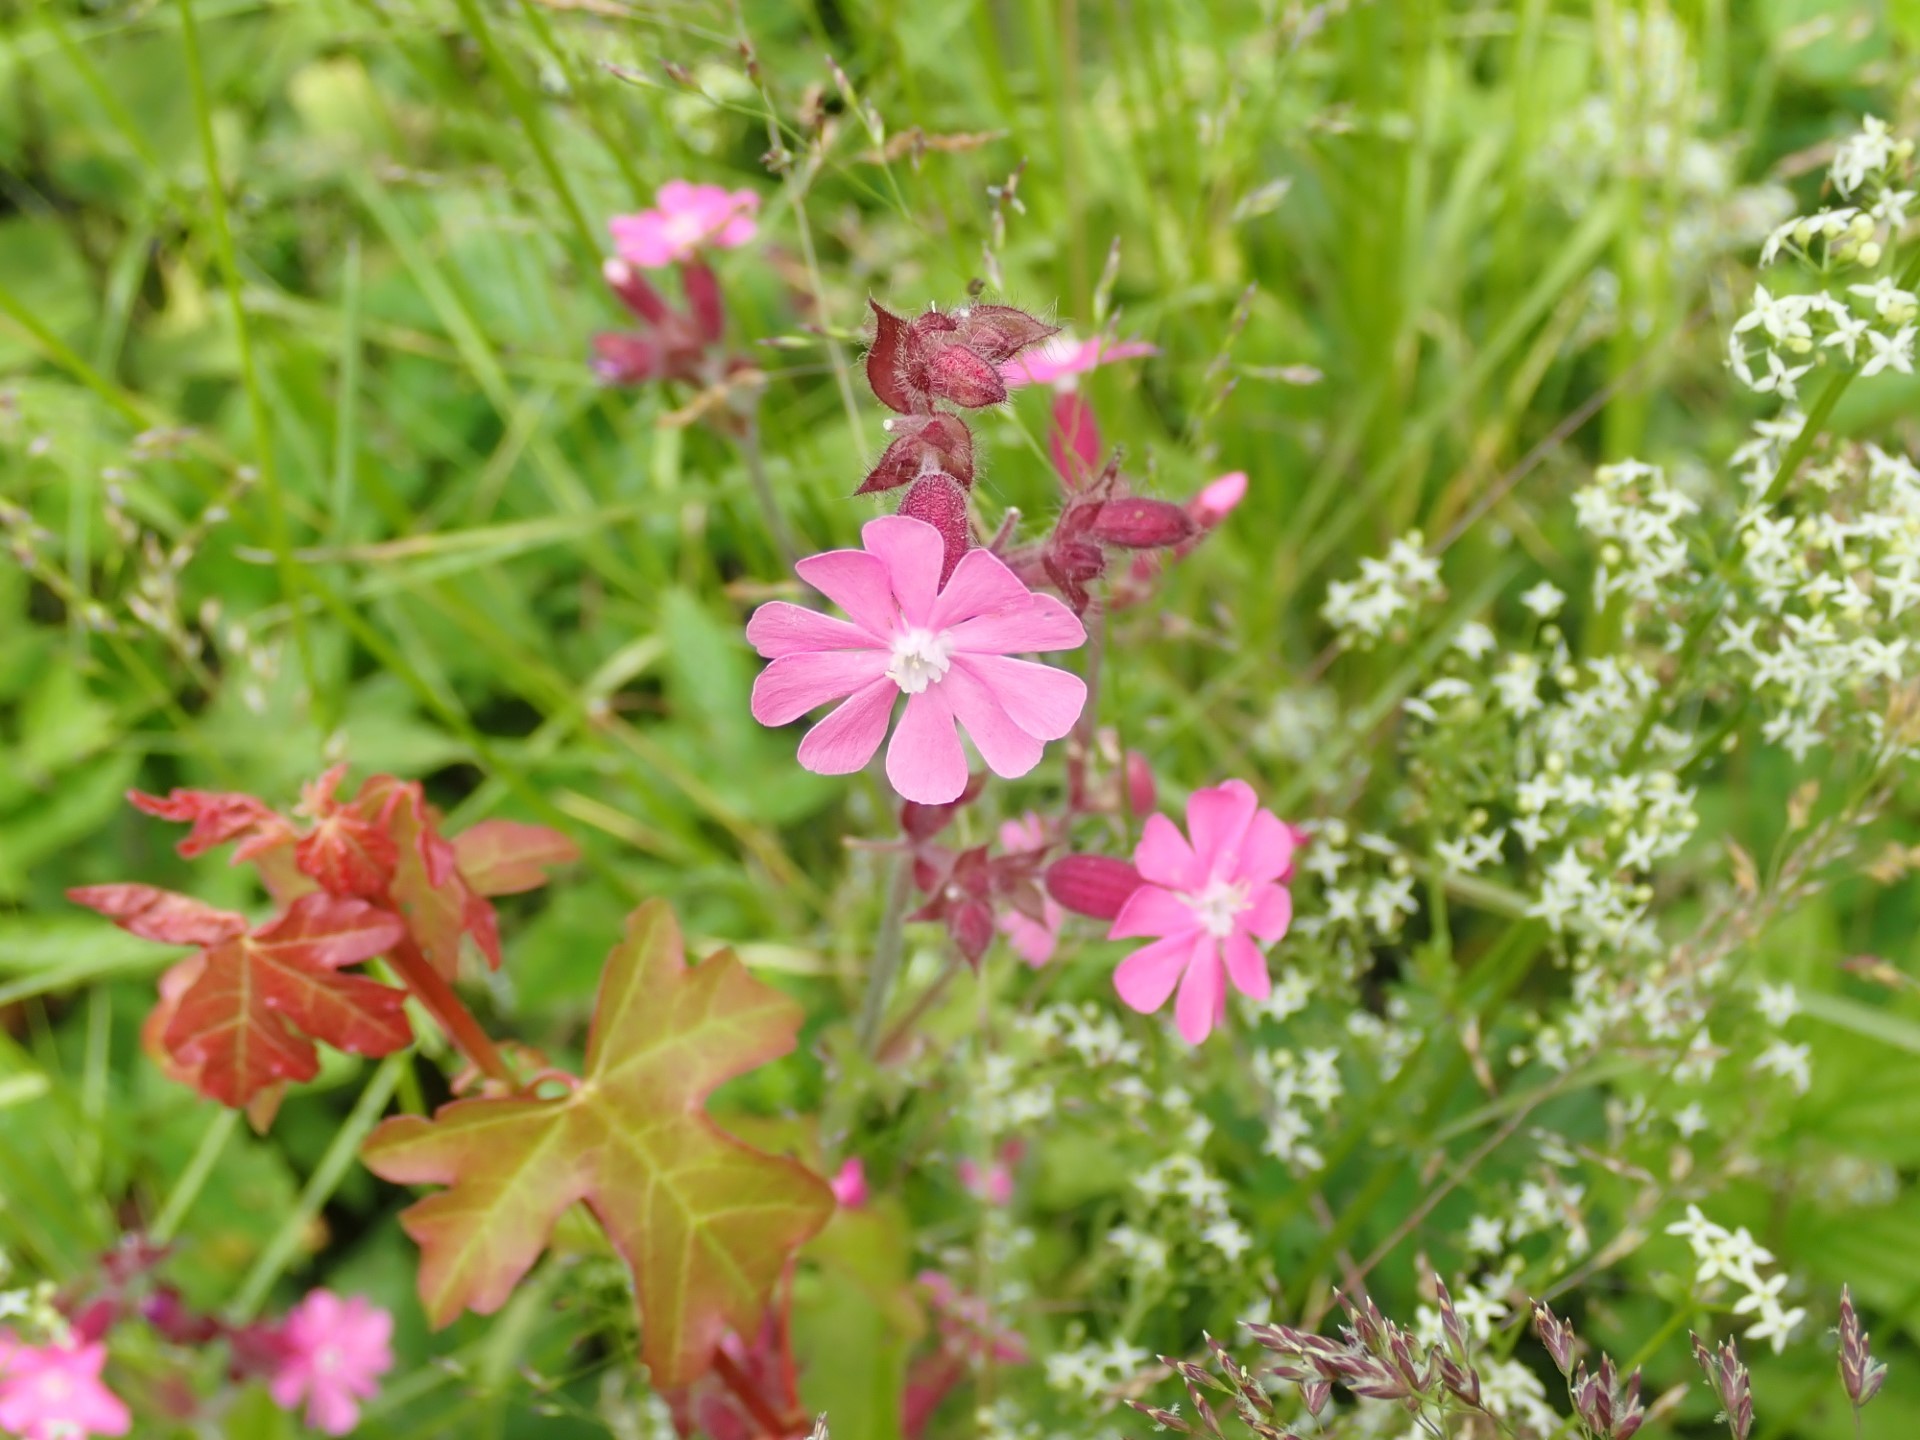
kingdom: Plantae
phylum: Tracheophyta
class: Magnoliopsida
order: Caryophyllales
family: Caryophyllaceae
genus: Silene
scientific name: Silene dioica
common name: Red campion
